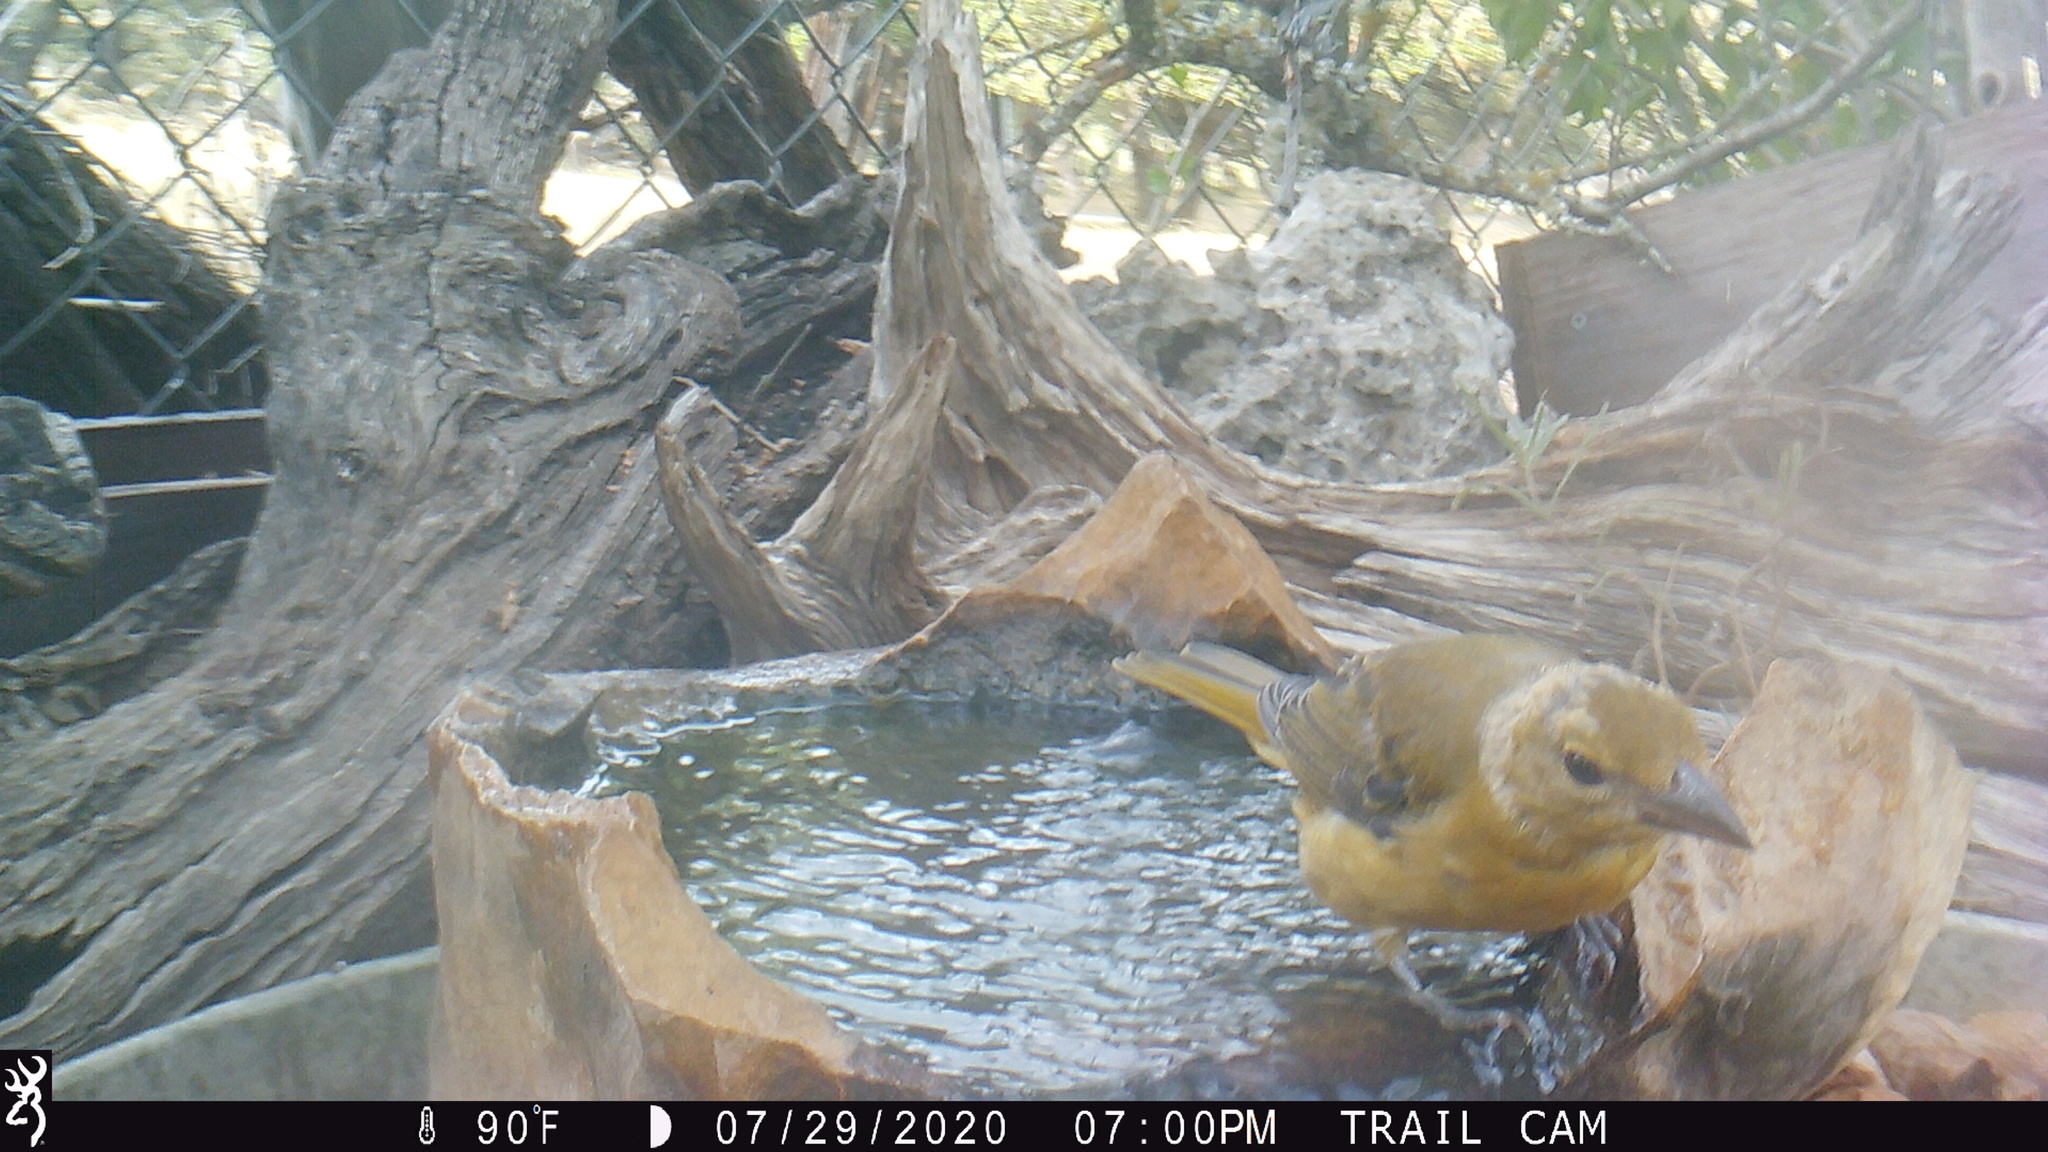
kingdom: Animalia
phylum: Chordata
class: Aves
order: Passeriformes
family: Cardinalidae
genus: Piranga
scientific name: Piranga rubra
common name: Summer tanager
